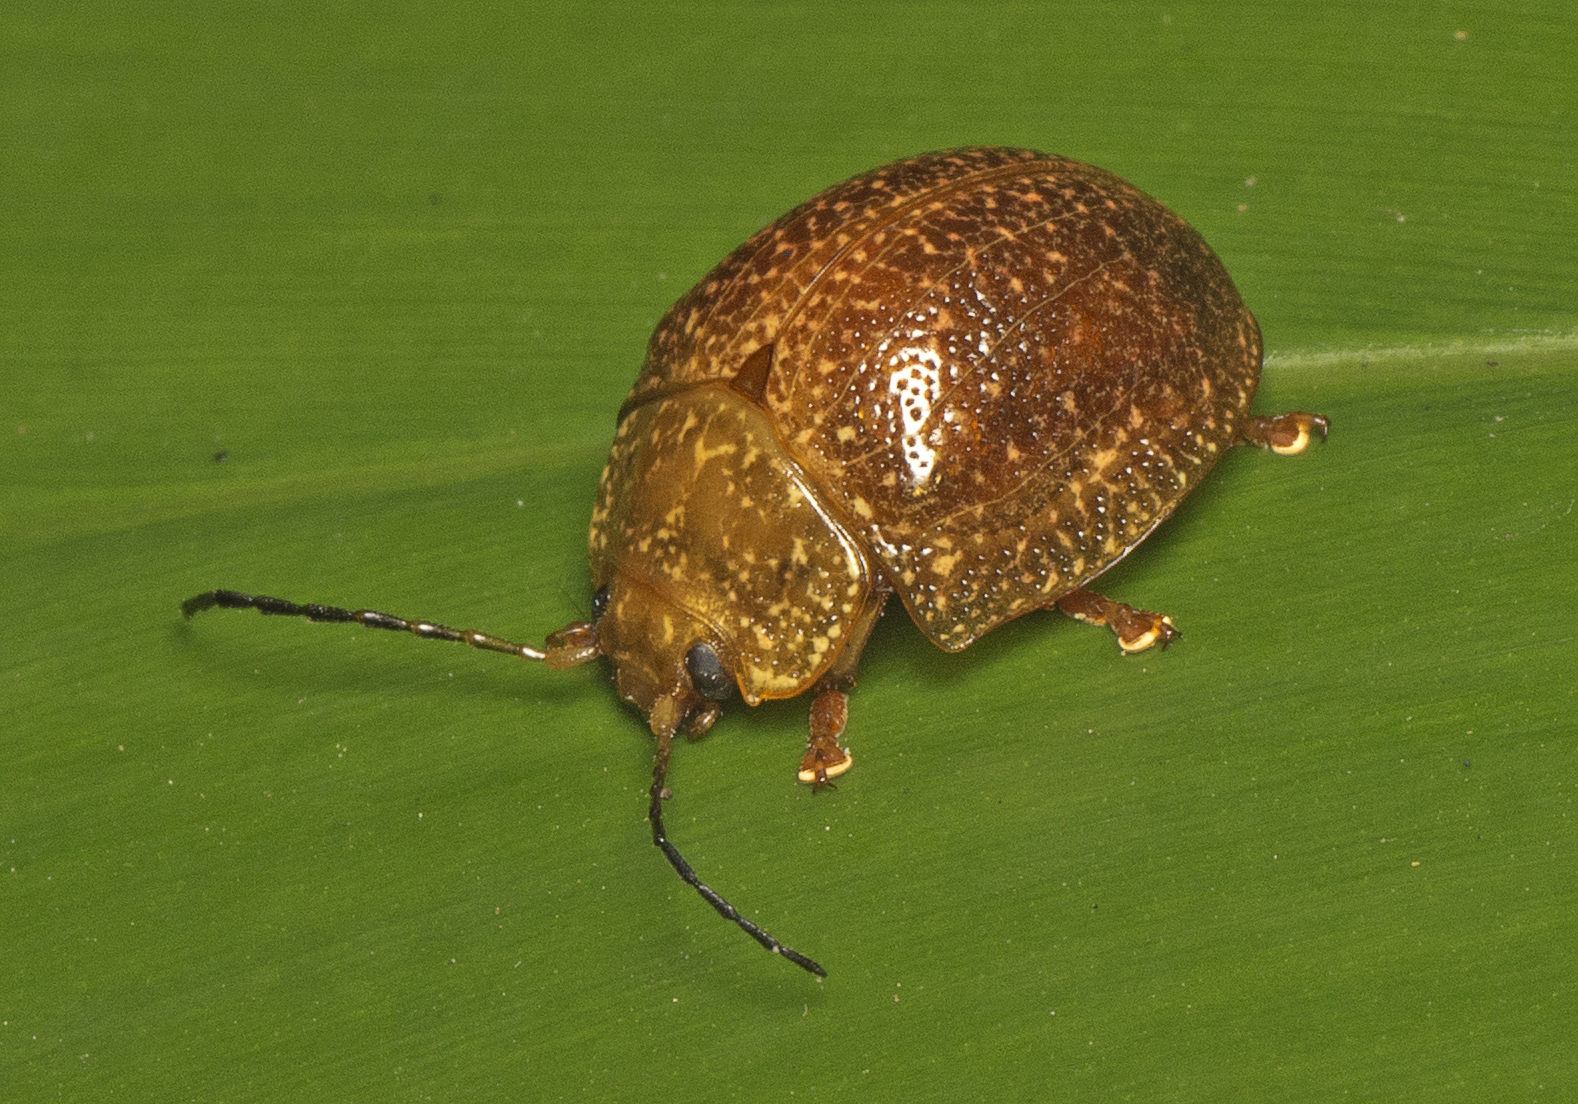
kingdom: Animalia
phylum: Arthropoda
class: Insecta
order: Coleoptera
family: Chrysomelidae
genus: Paropsis
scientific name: Paropsis
